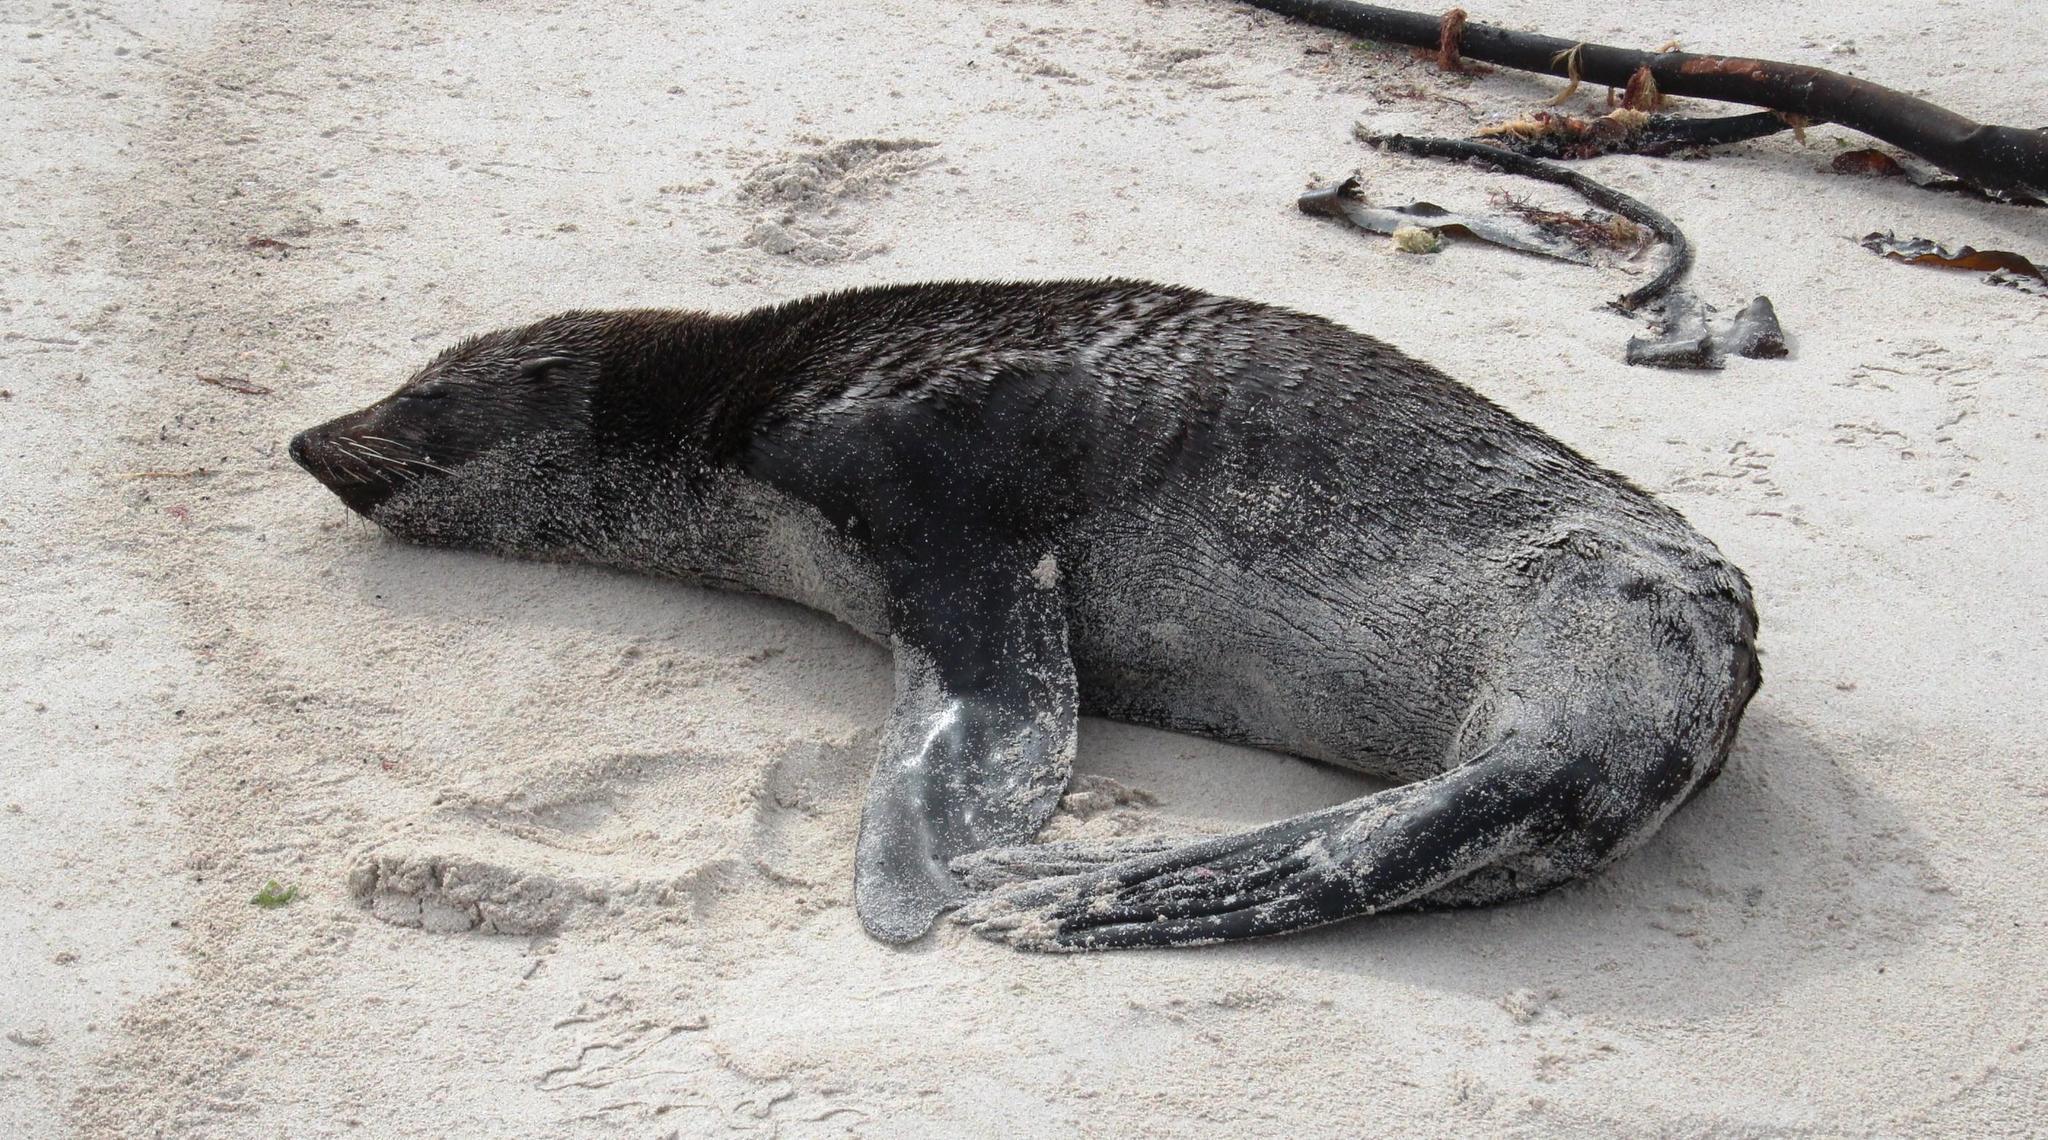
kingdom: Animalia
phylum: Chordata
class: Mammalia
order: Carnivora
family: Otariidae
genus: Arctocephalus
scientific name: Arctocephalus pusillus
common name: Brown fur seal
